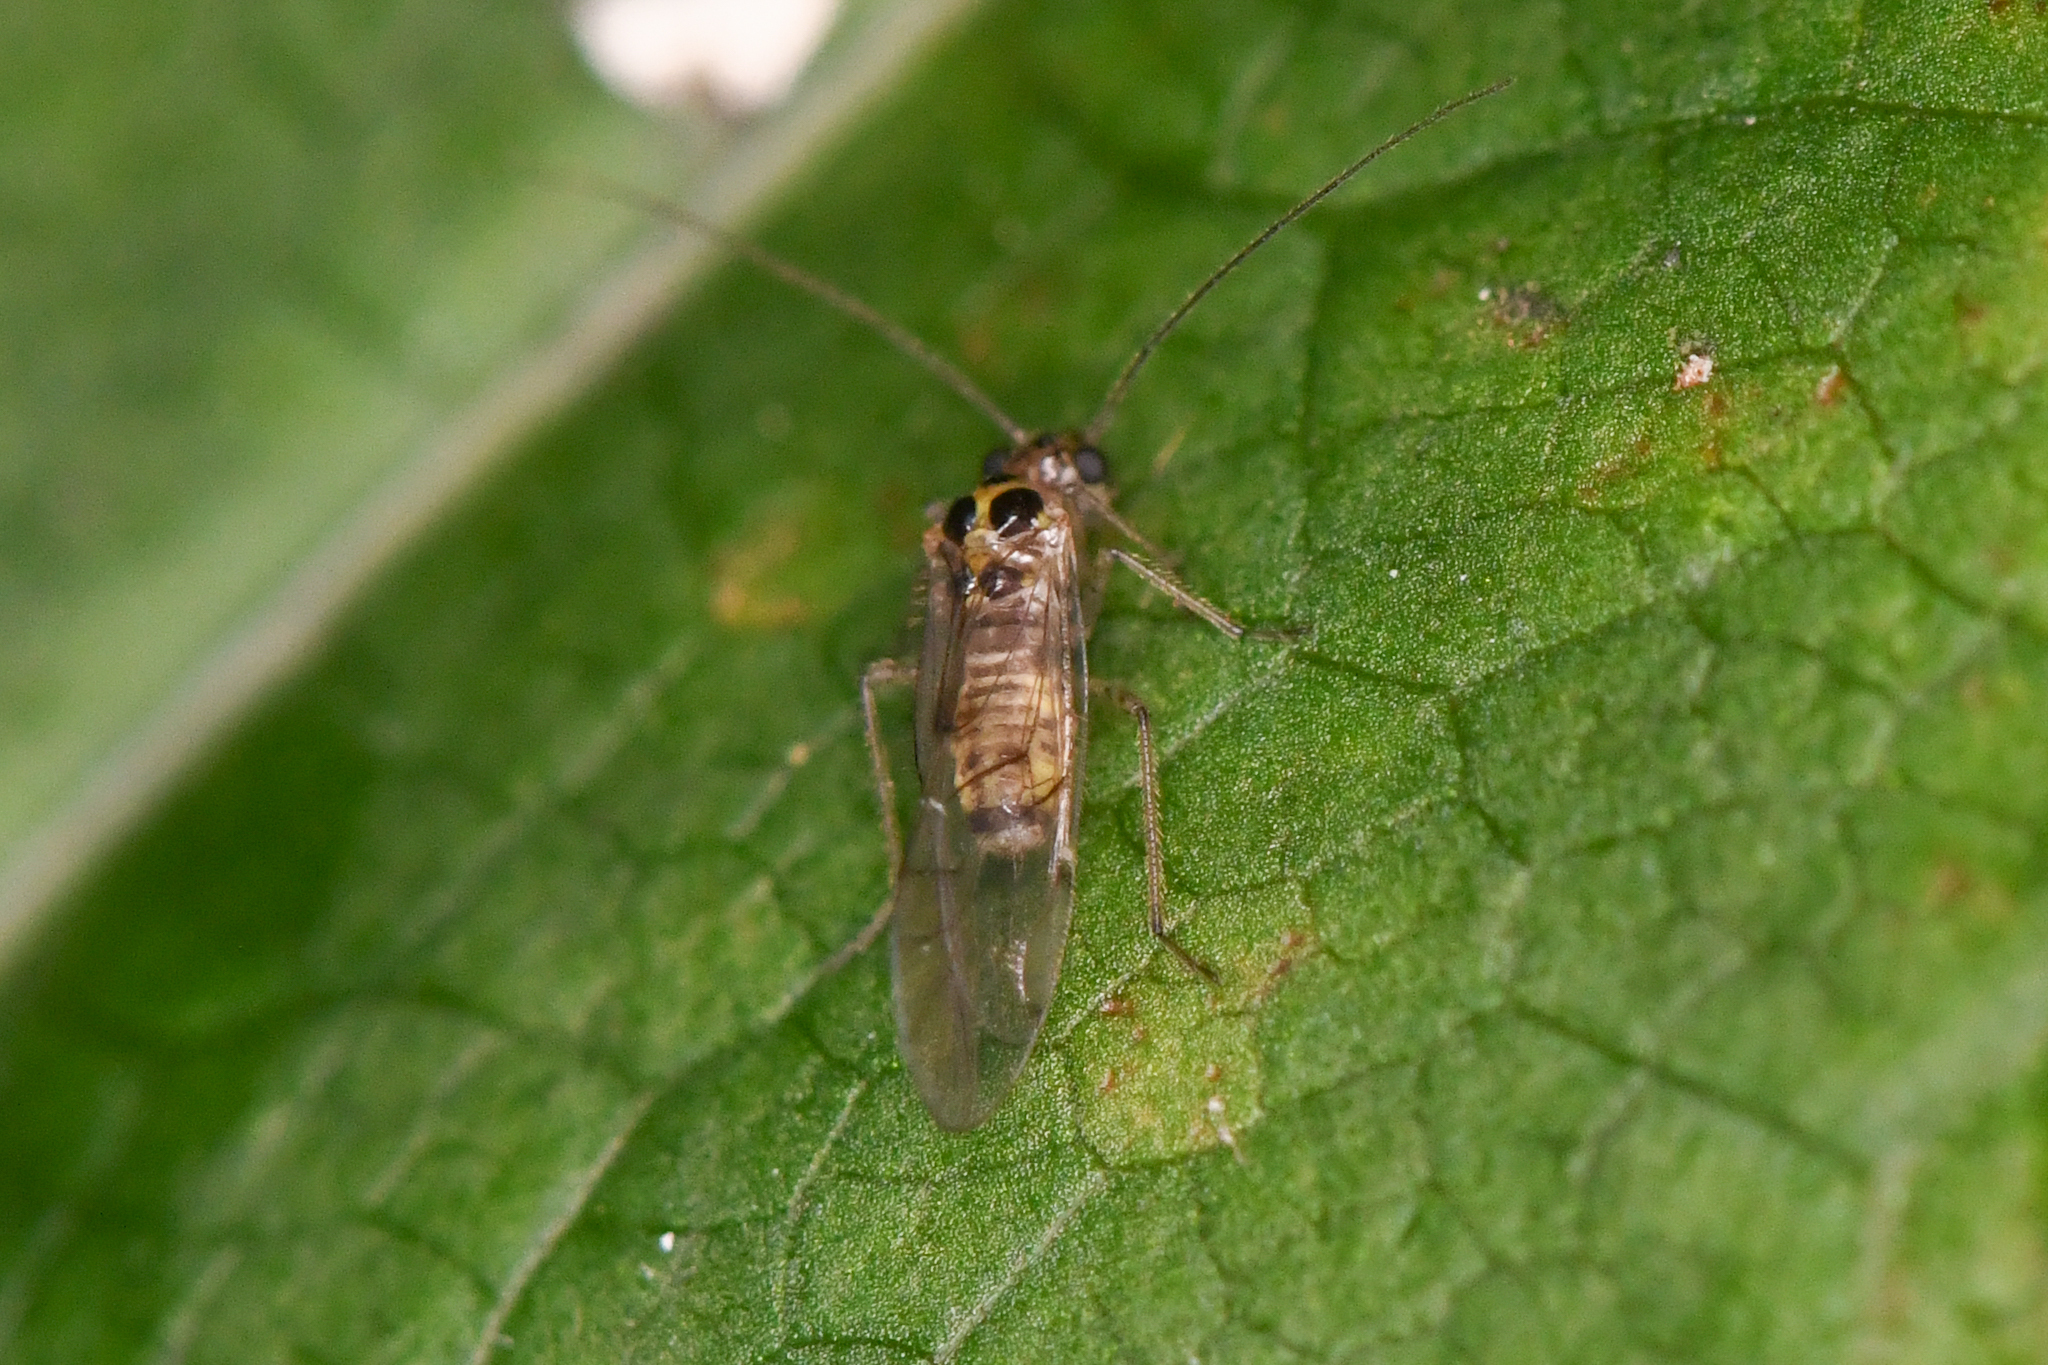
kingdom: Animalia
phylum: Arthropoda
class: Insecta
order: Psocodea
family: Dasydemellidae
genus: Teliapsocus
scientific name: Teliapsocus conterminus
